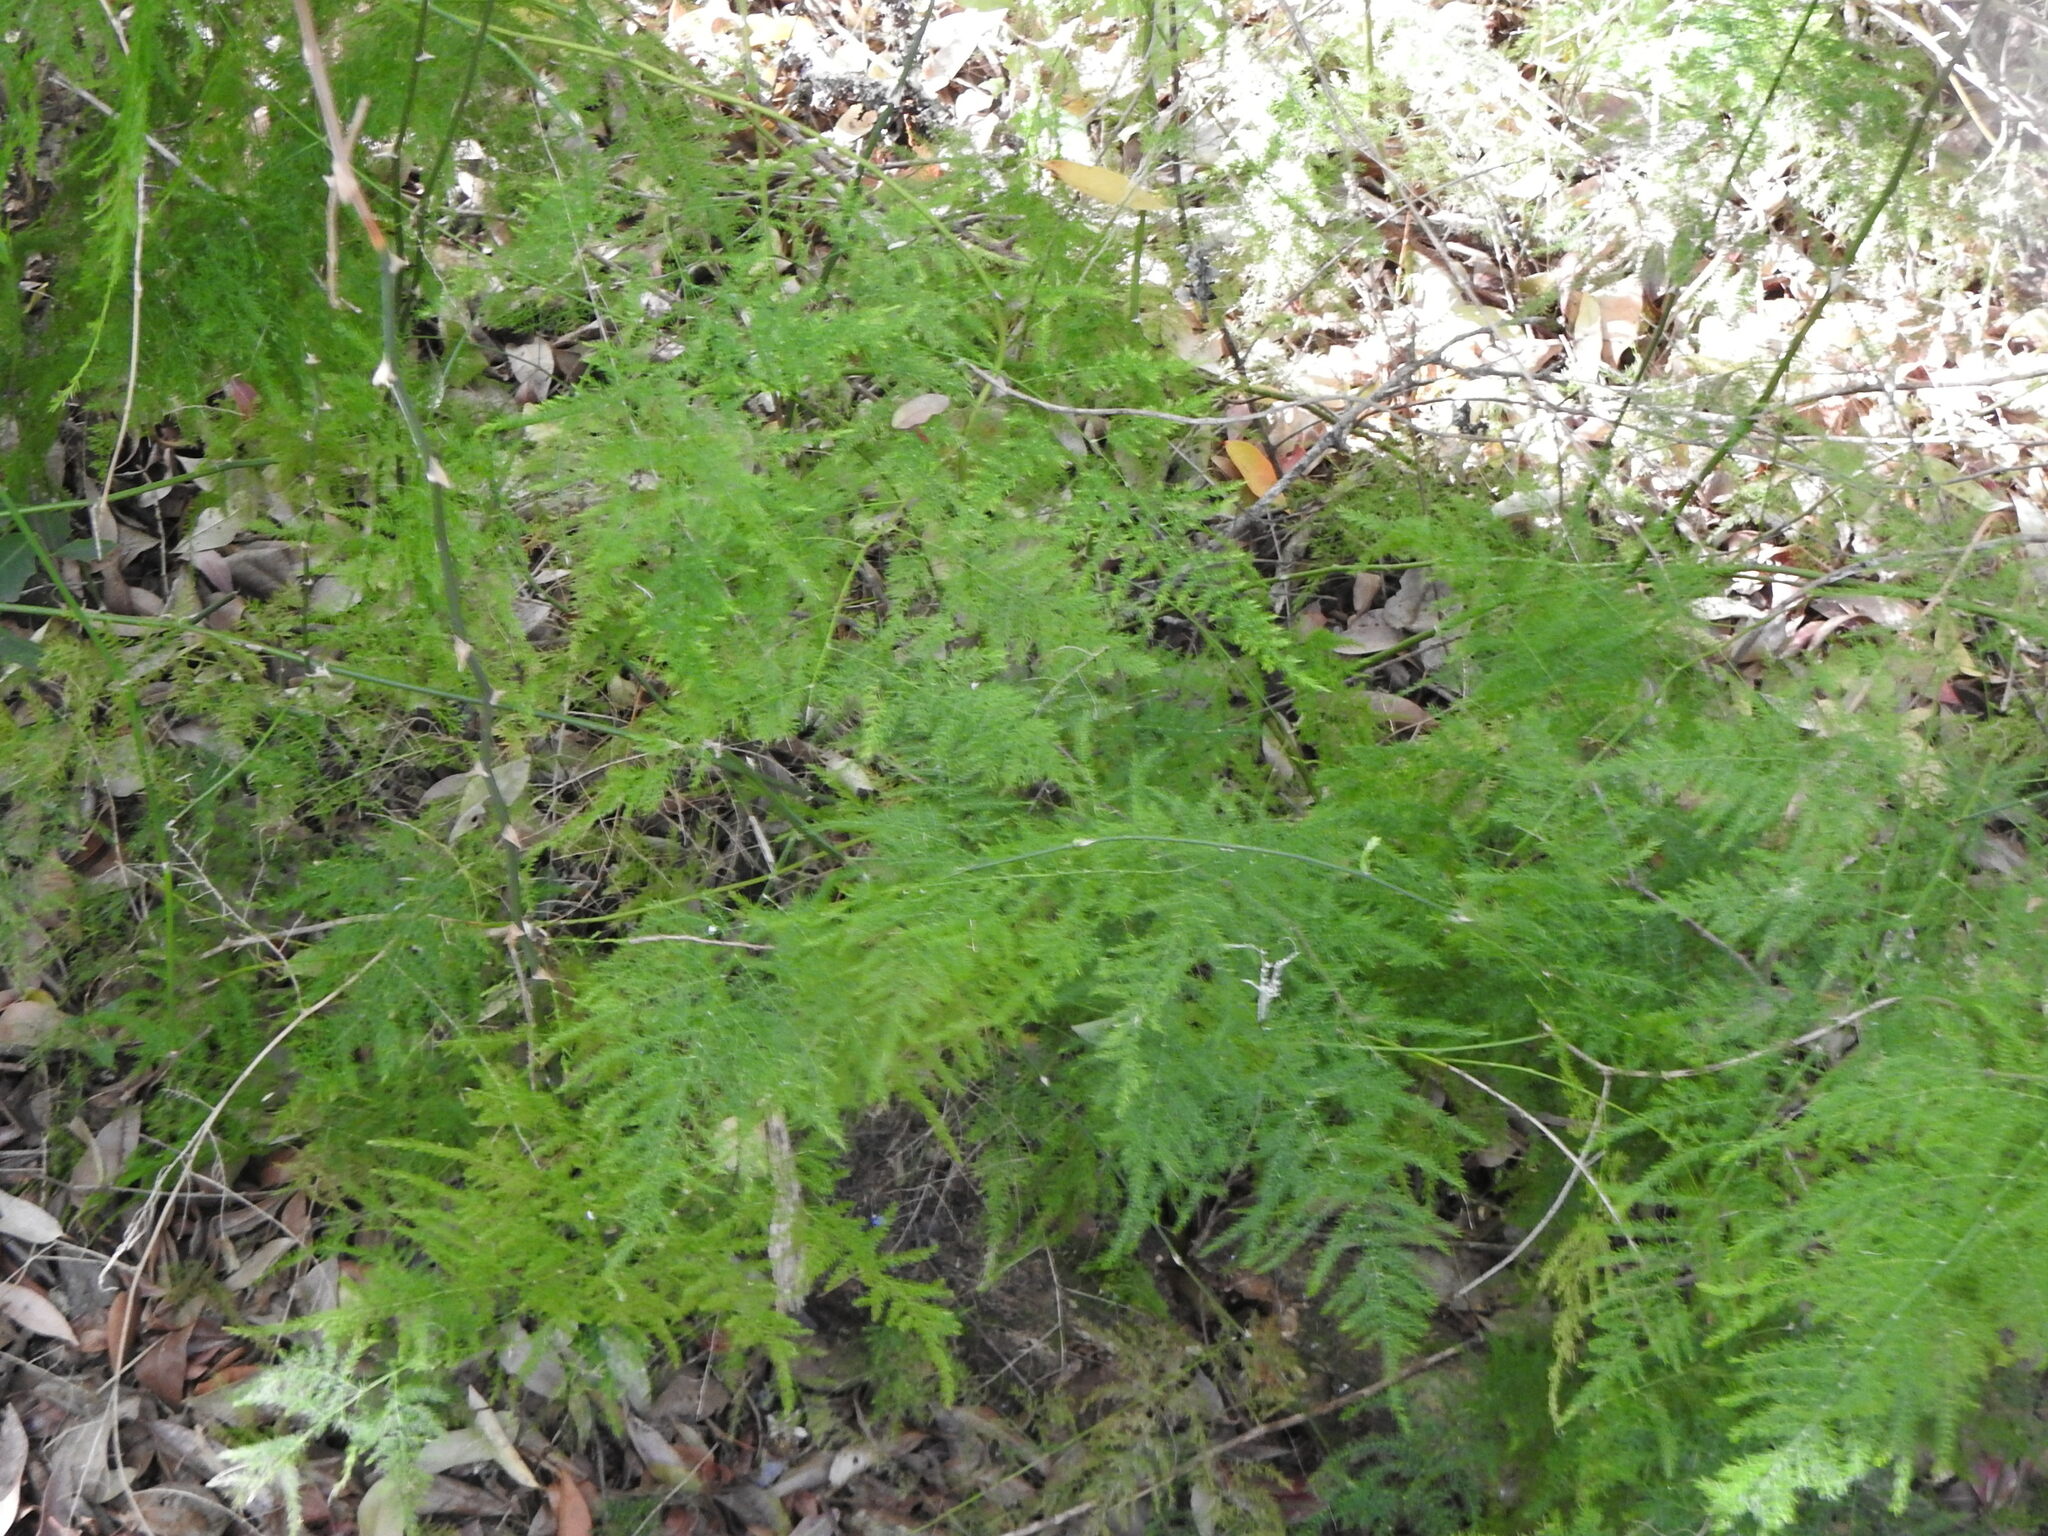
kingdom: Plantae
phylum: Tracheophyta
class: Liliopsida
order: Asparagales
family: Asparagaceae
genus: Asparagus
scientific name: Asparagus setaceus
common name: Common asparagus fern
